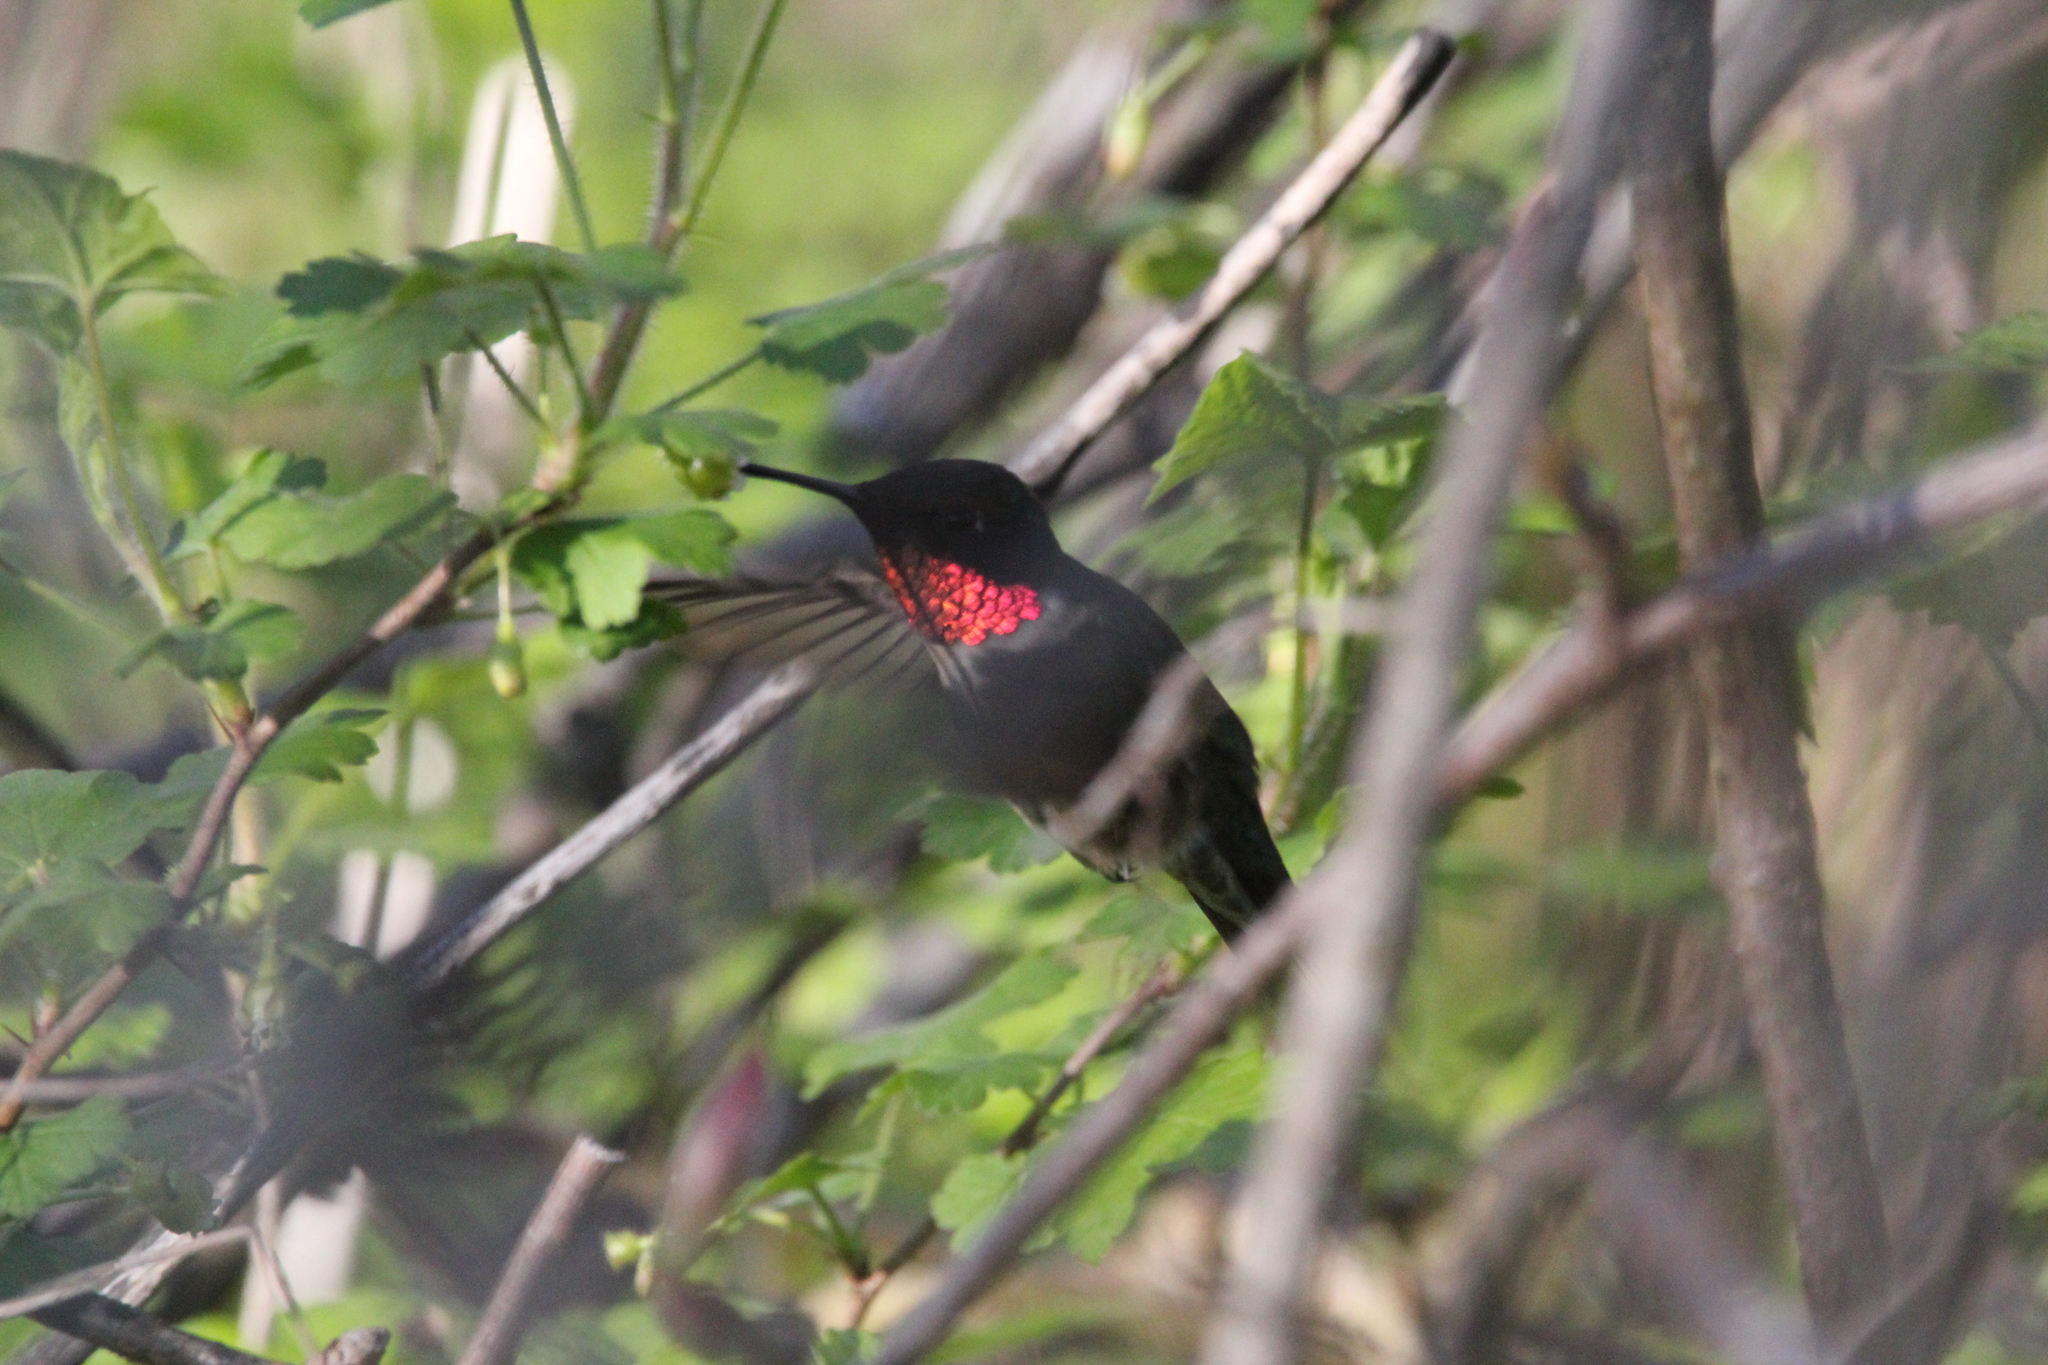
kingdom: Animalia
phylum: Chordata
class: Aves
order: Apodiformes
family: Trochilidae
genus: Archilochus
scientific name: Archilochus colubris
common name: Ruby-throated hummingbird
